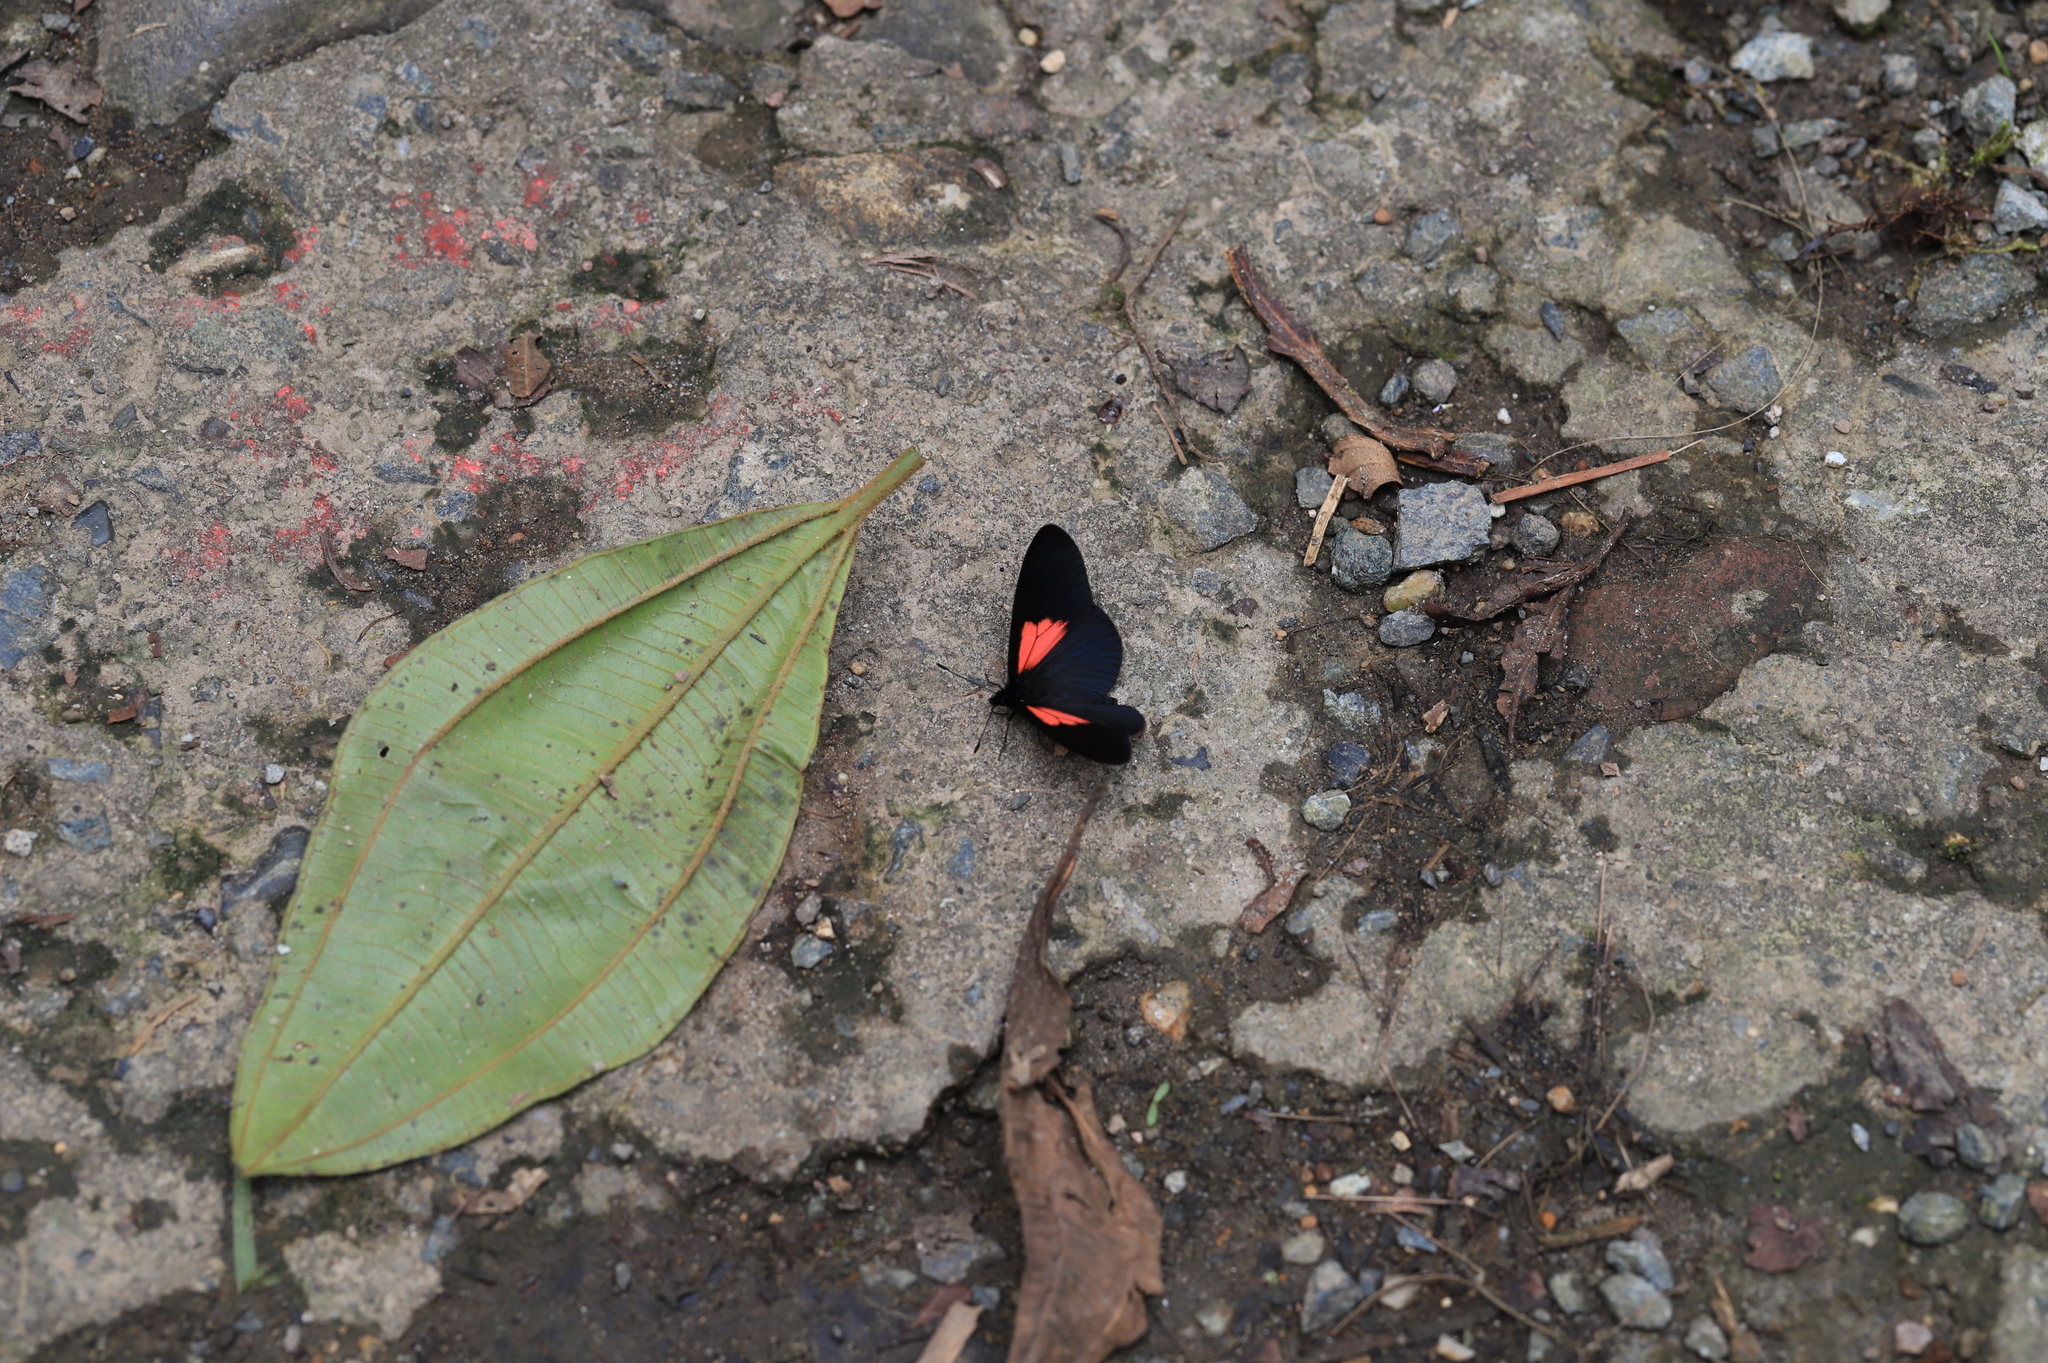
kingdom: Animalia
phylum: Arthropoda
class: Insecta
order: Lepidoptera
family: Nymphalidae
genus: Acraea
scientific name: Acraea Altinote ozomene
